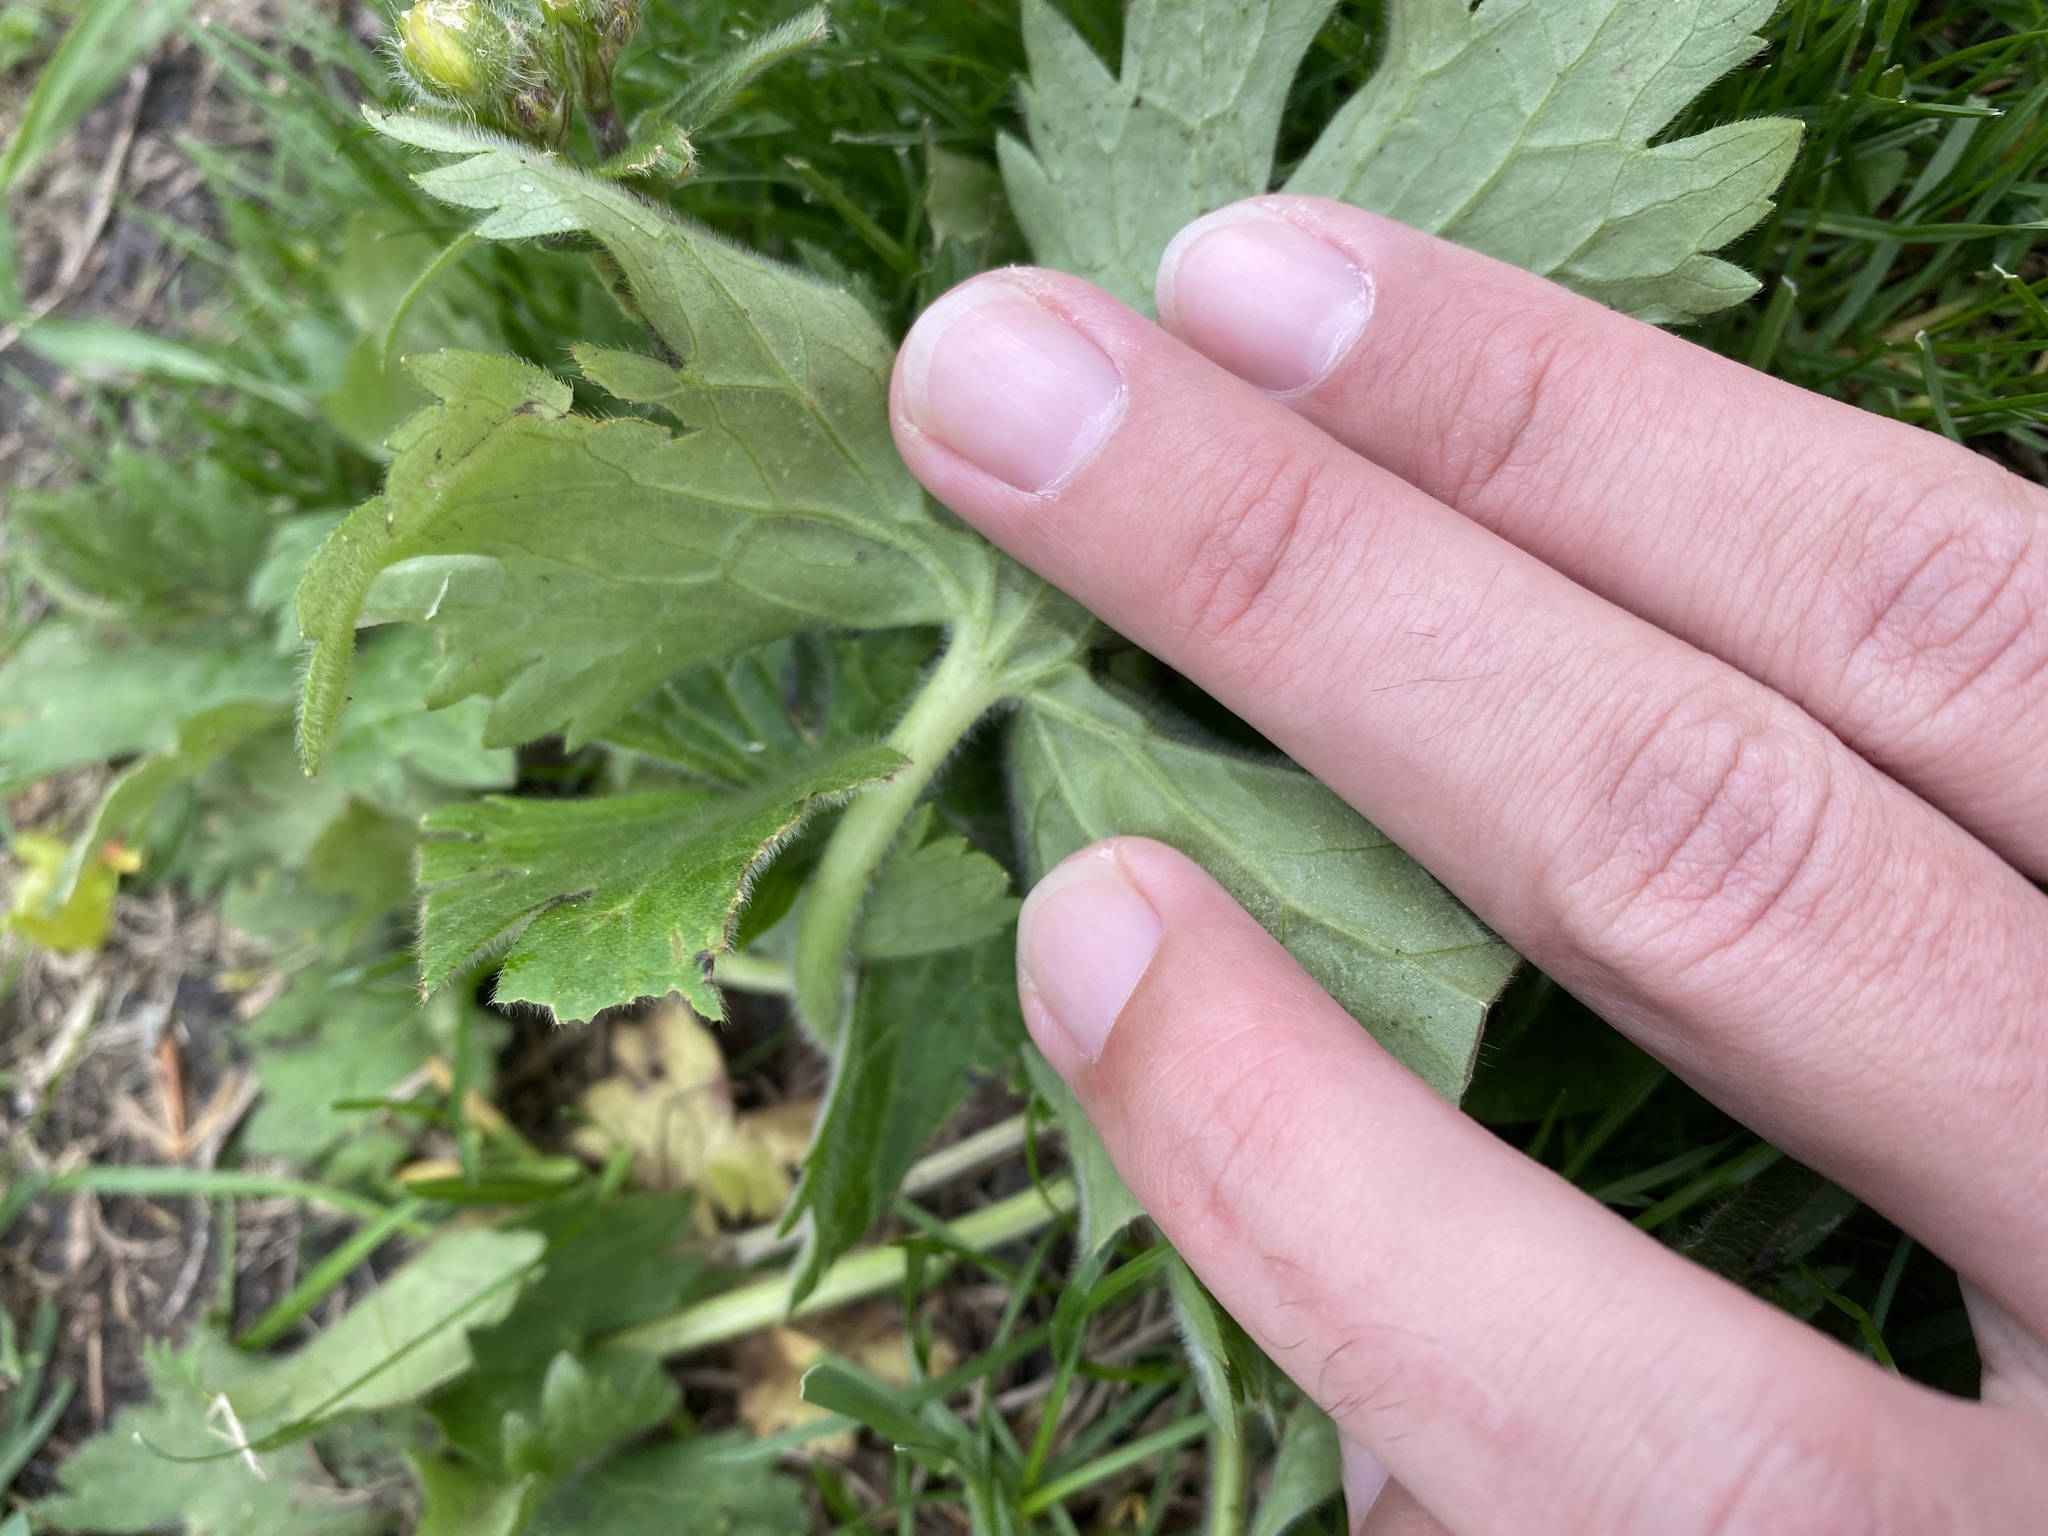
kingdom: Plantae
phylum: Tracheophyta
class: Magnoliopsida
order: Ranunculales
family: Ranunculaceae
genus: Ranunculus
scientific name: Ranunculus constantinopolitanus
